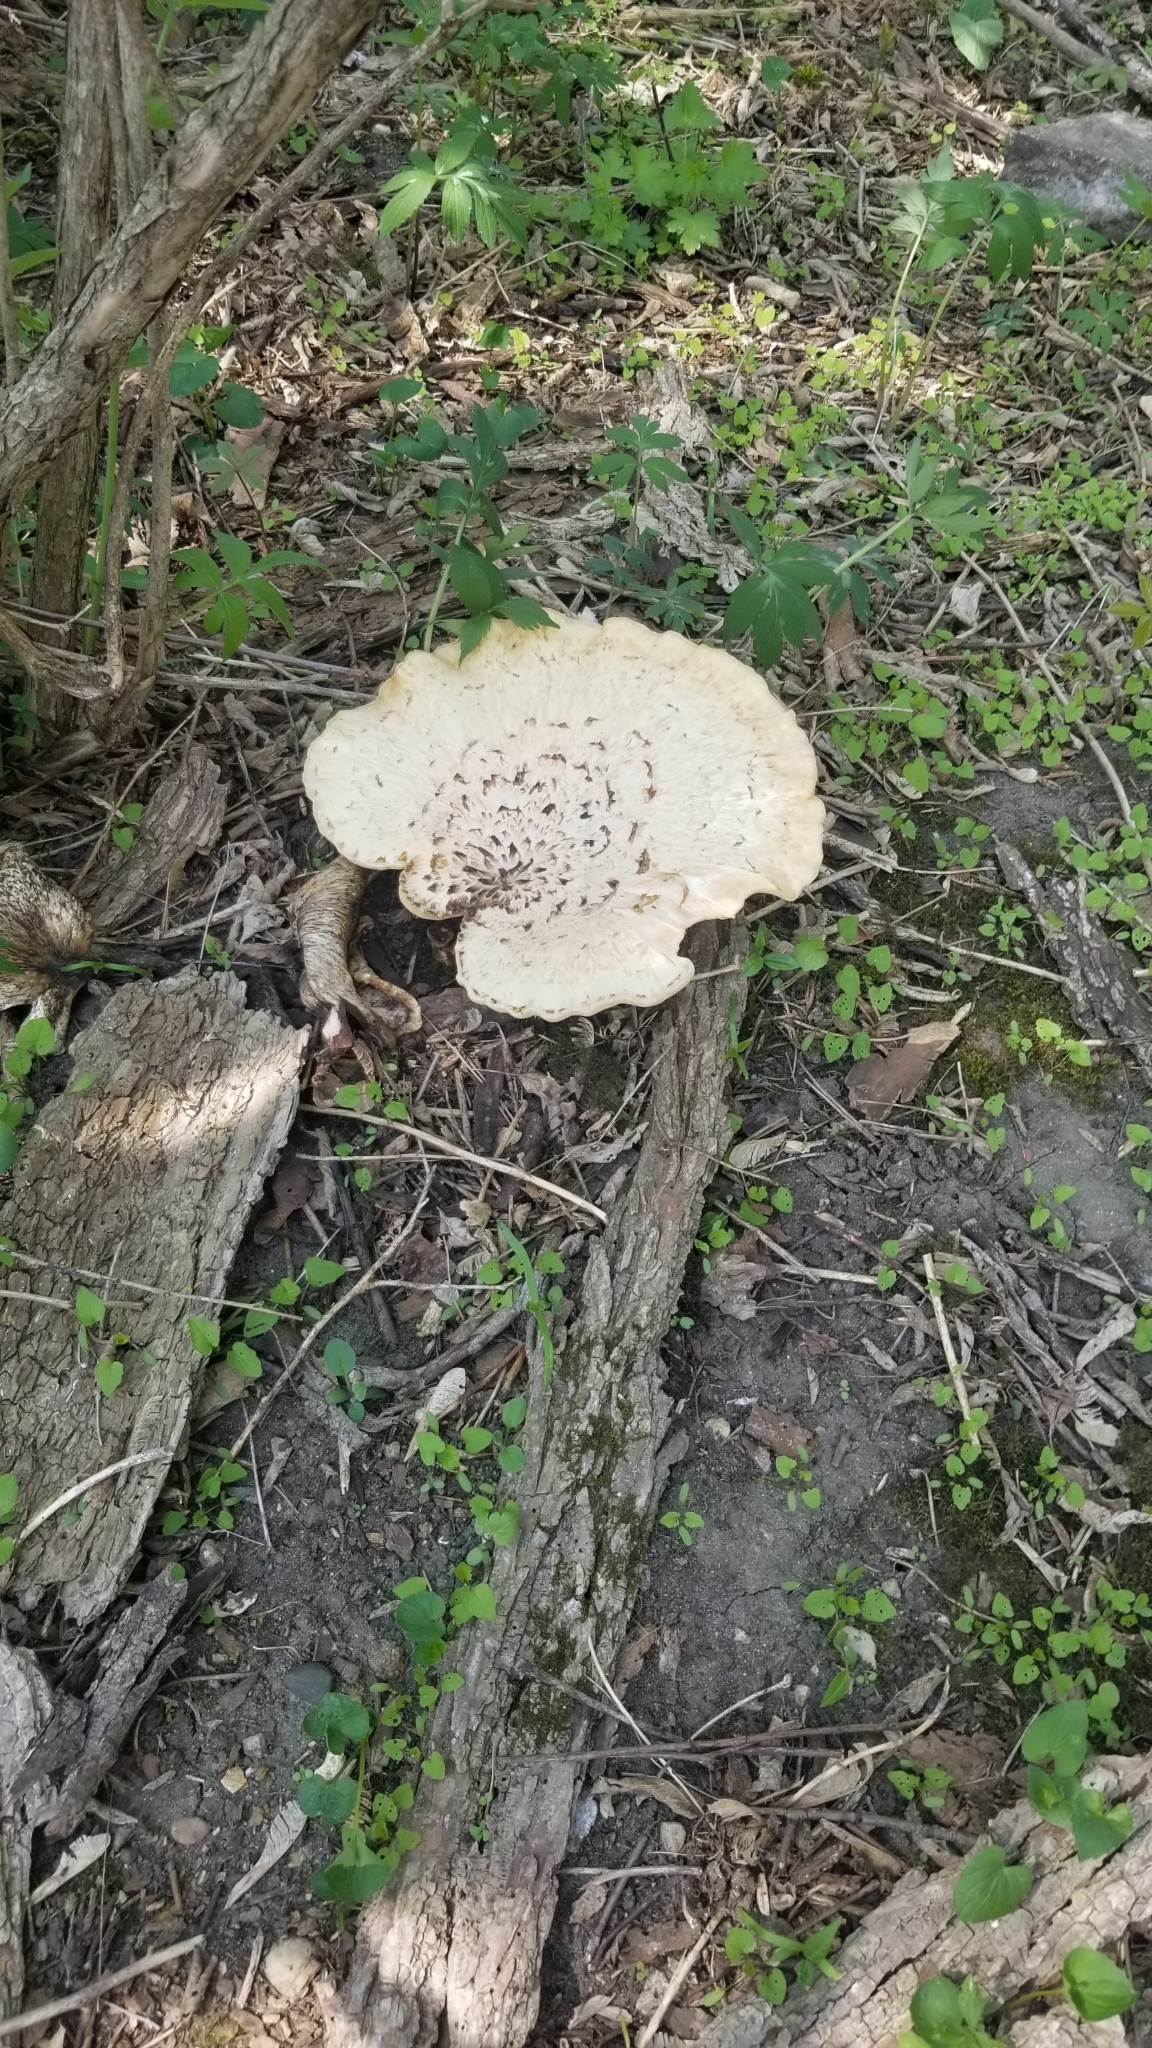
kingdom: Fungi
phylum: Basidiomycota
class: Agaricomycetes
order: Polyporales
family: Polyporaceae
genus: Cerioporus
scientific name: Cerioporus squamosus
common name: Dryad's saddle
